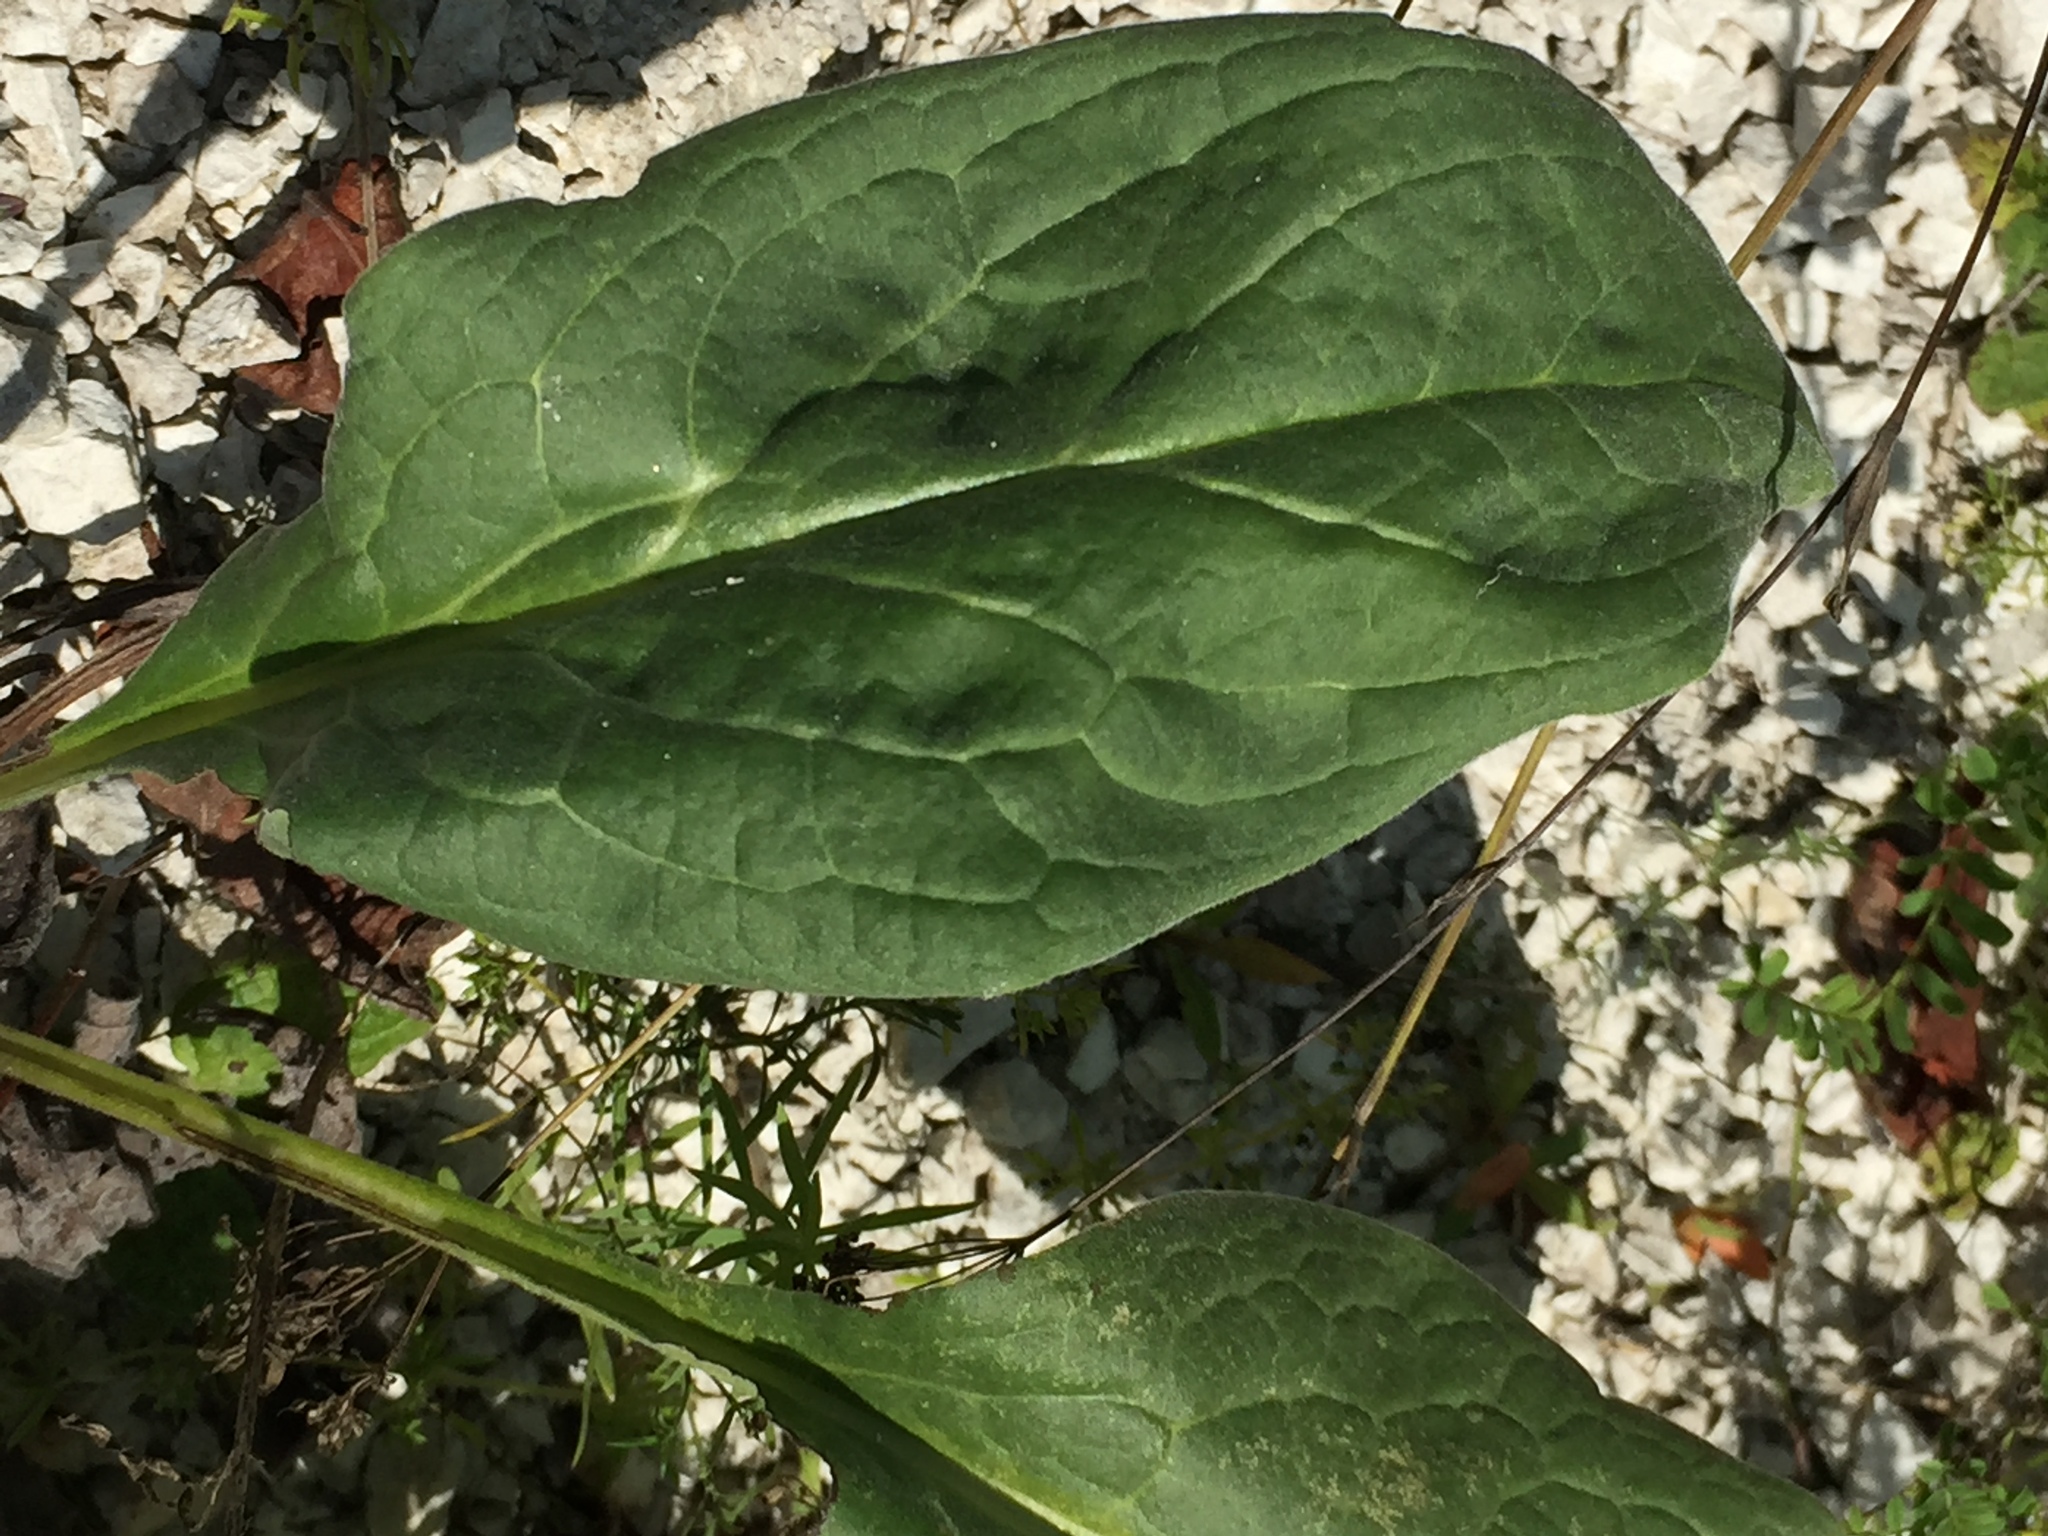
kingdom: Plantae
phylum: Tracheophyta
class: Magnoliopsida
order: Asterales
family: Asteraceae
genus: Solidago
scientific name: Solidago virgaurea
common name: Goldenrod
